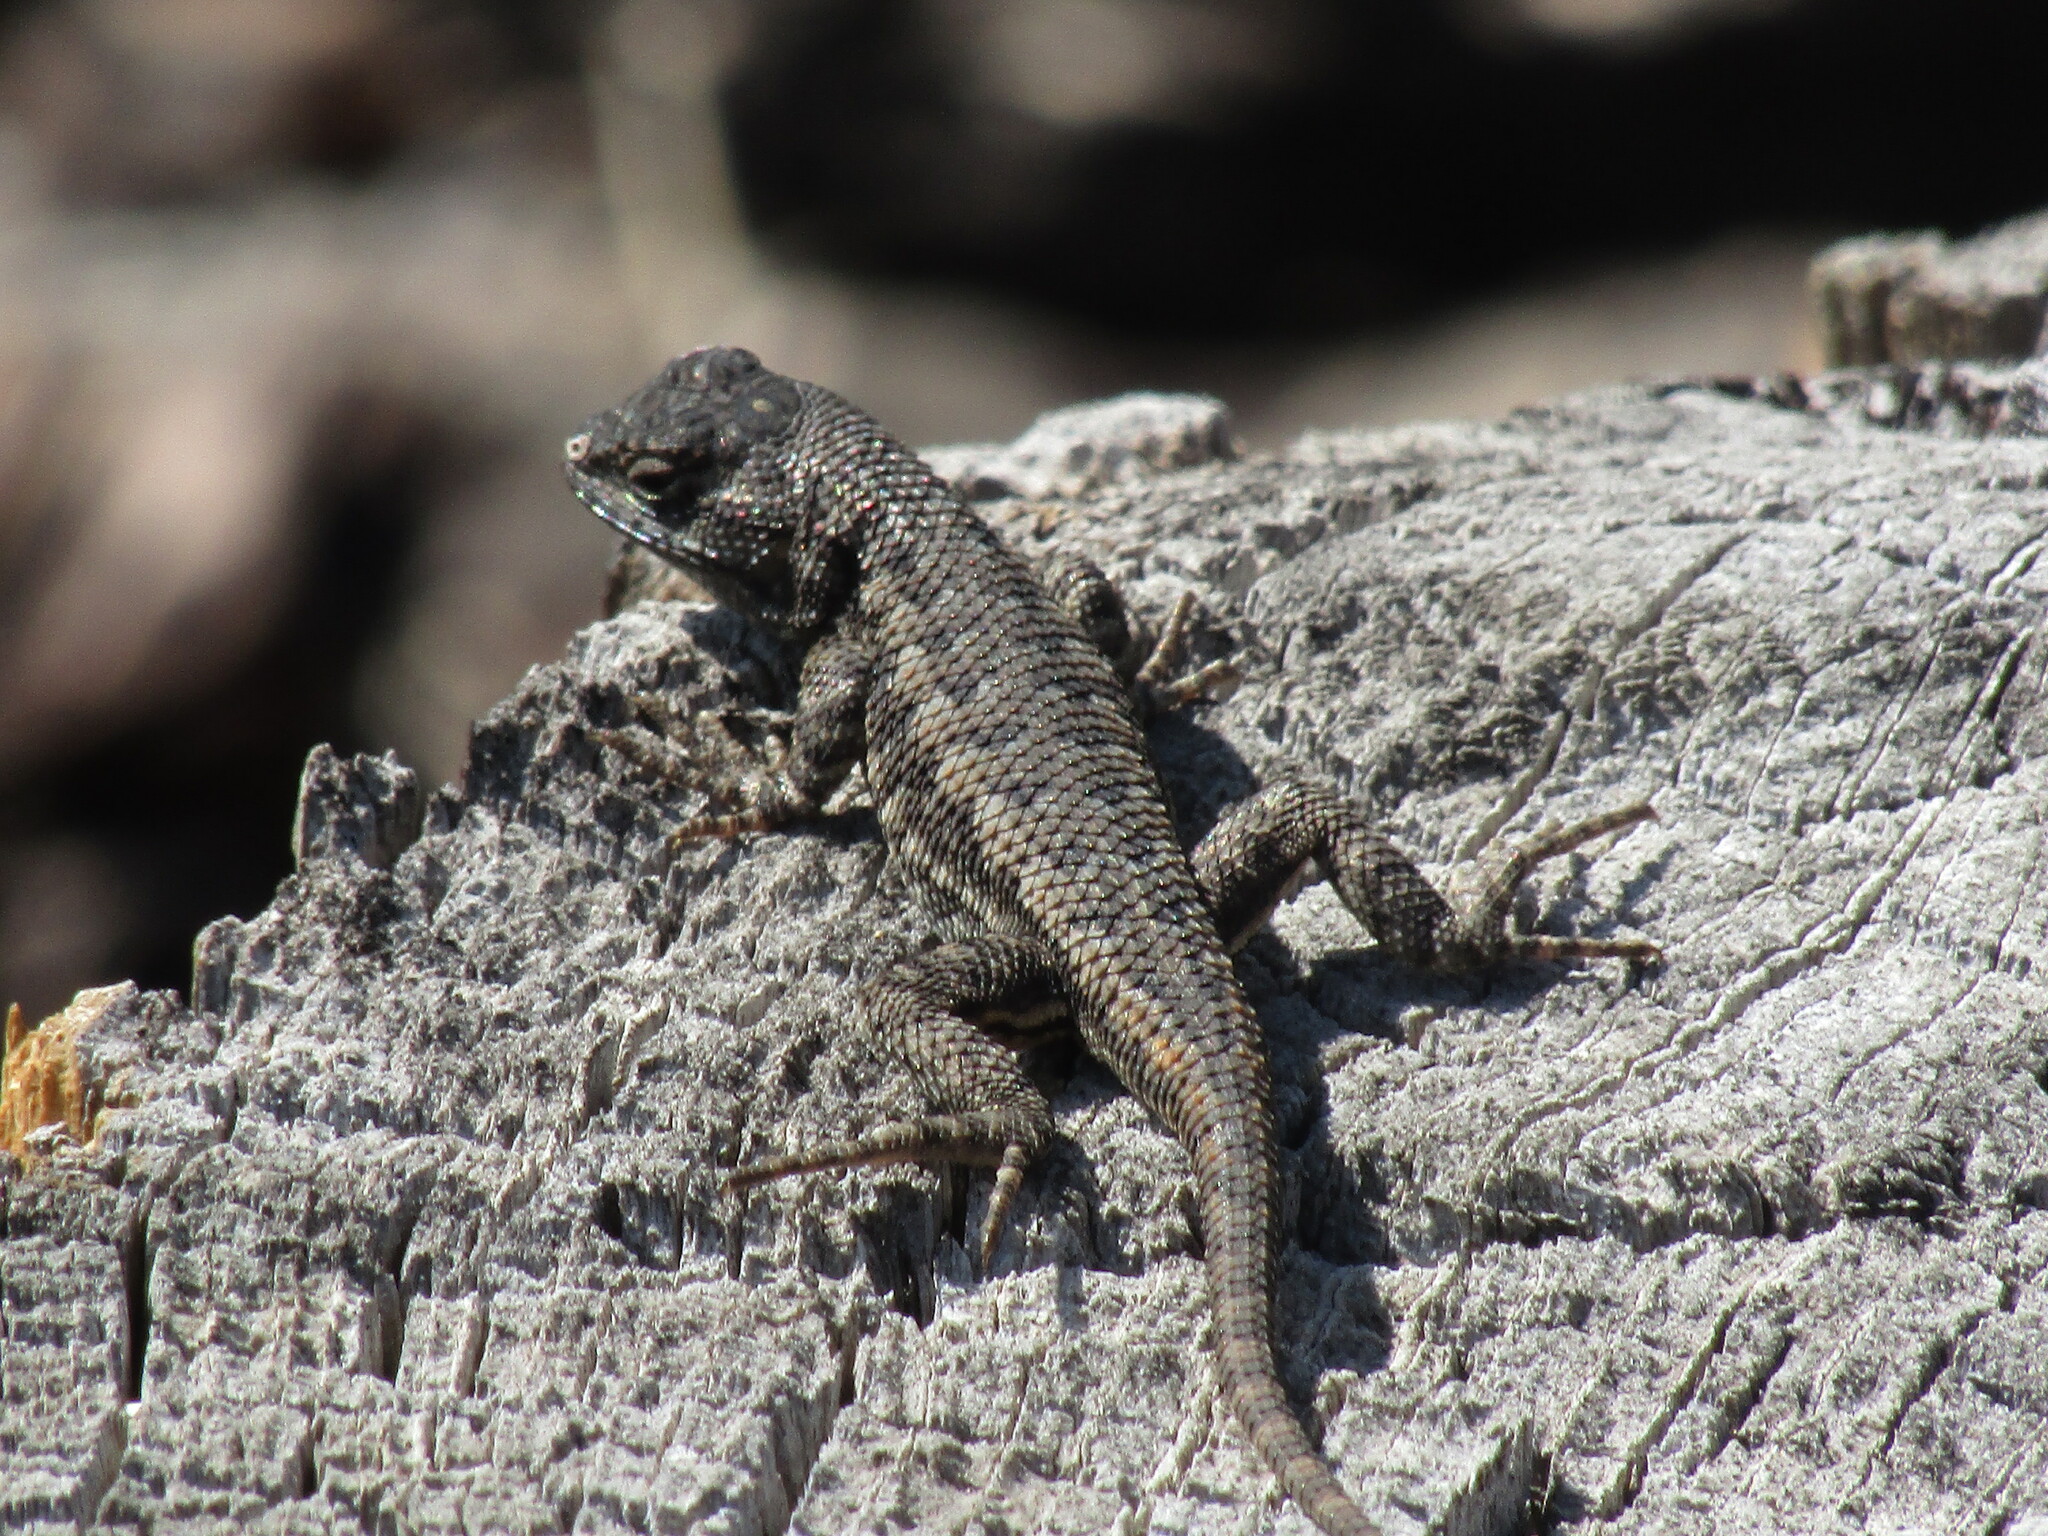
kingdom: Animalia
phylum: Chordata
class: Squamata
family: Phrynosomatidae
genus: Sceloporus
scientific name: Sceloporus occidentalis
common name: Western fence lizard
